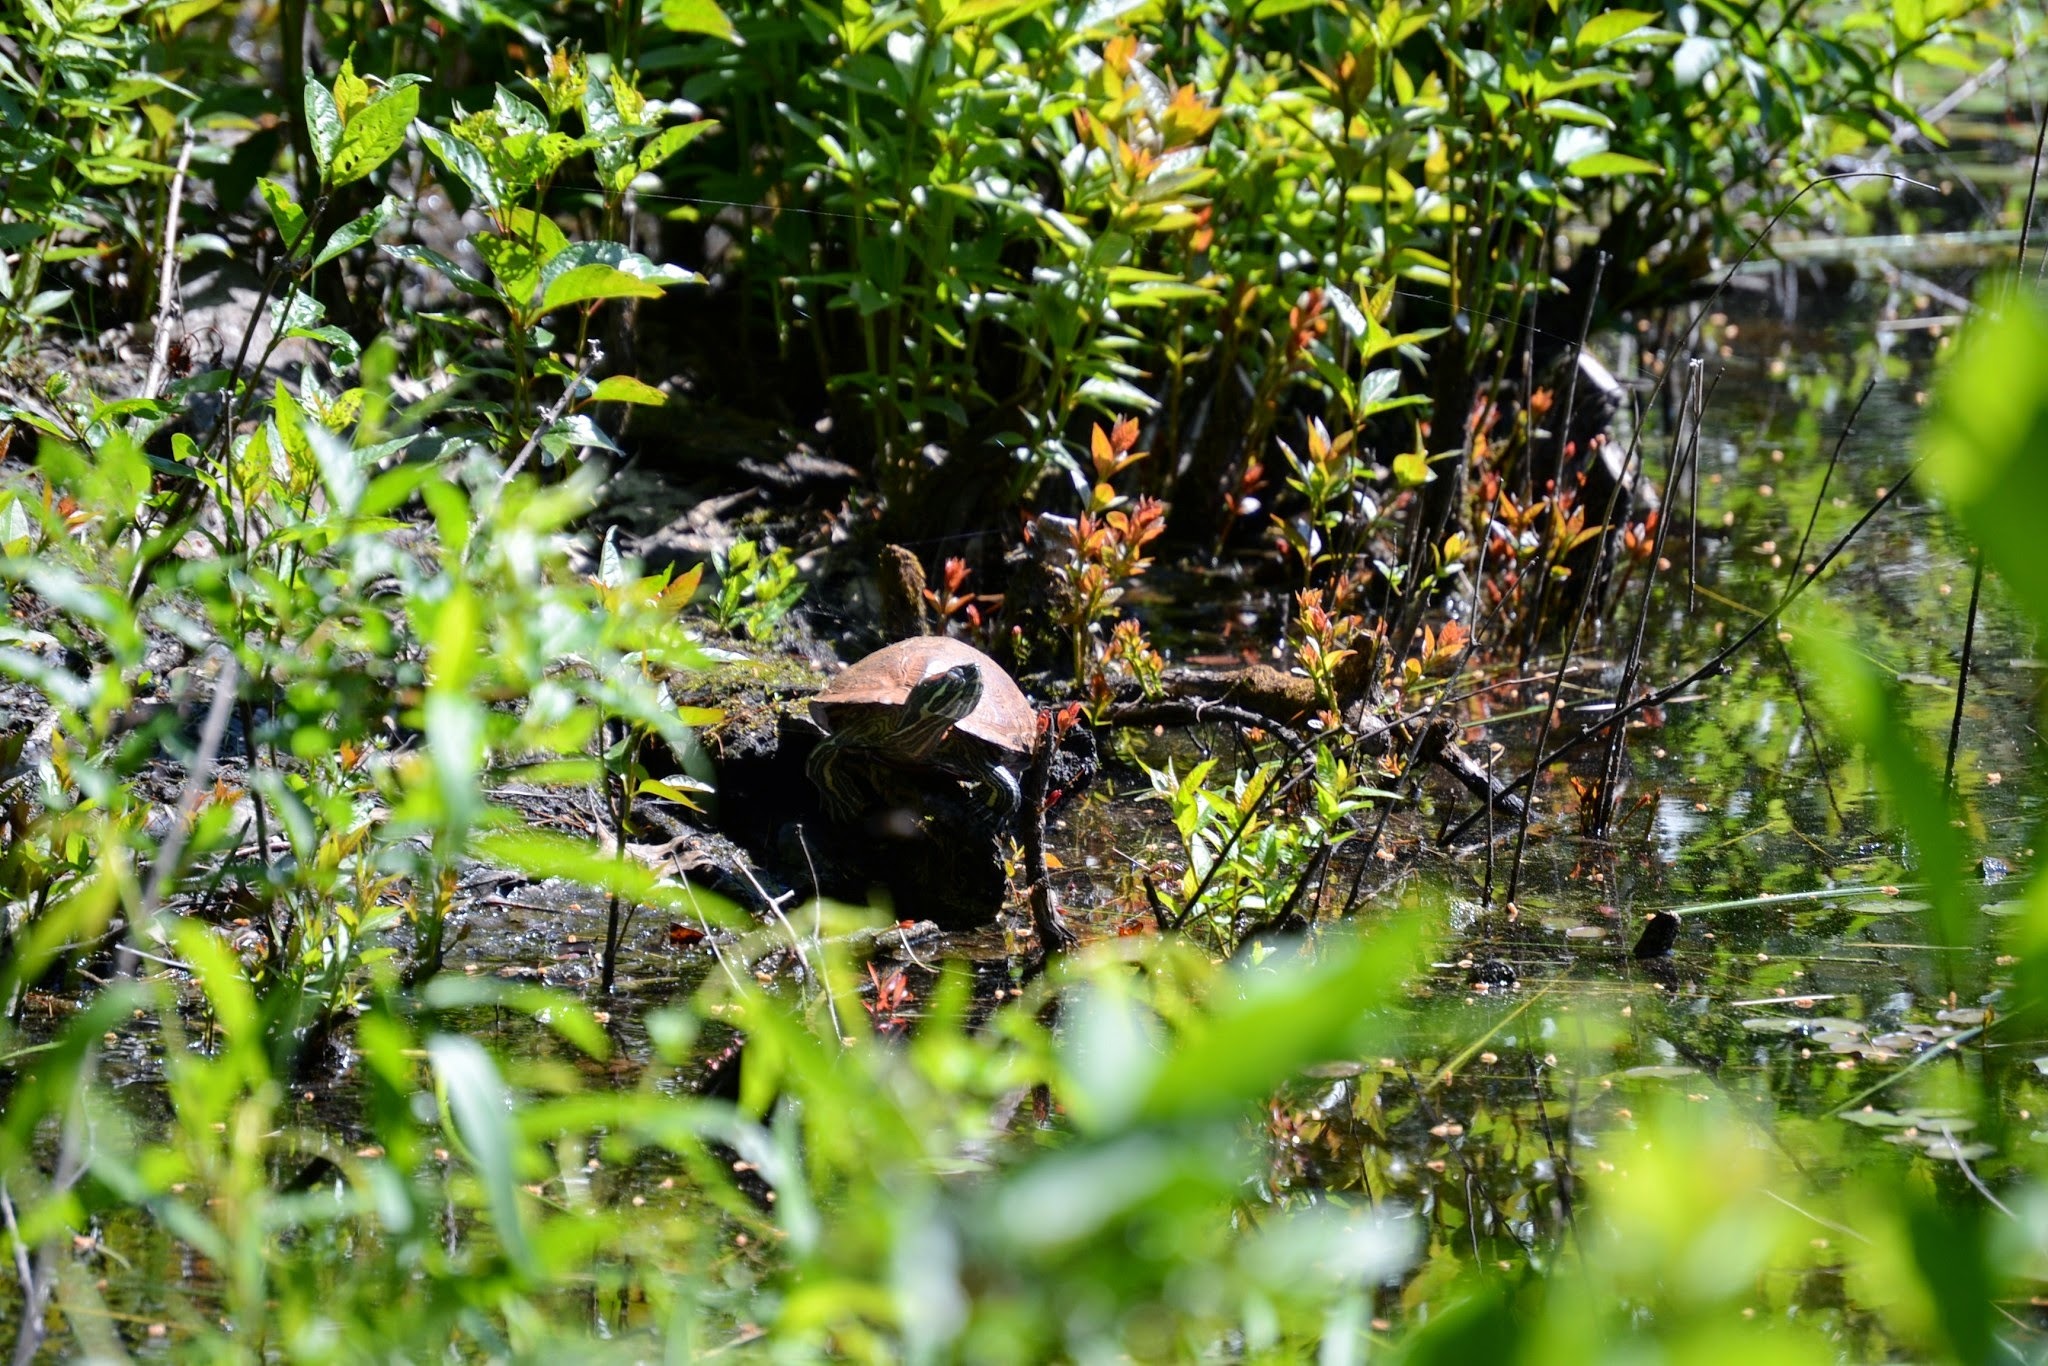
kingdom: Animalia
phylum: Chordata
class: Testudines
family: Emydidae
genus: Trachemys
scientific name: Trachemys scripta
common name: Slider
